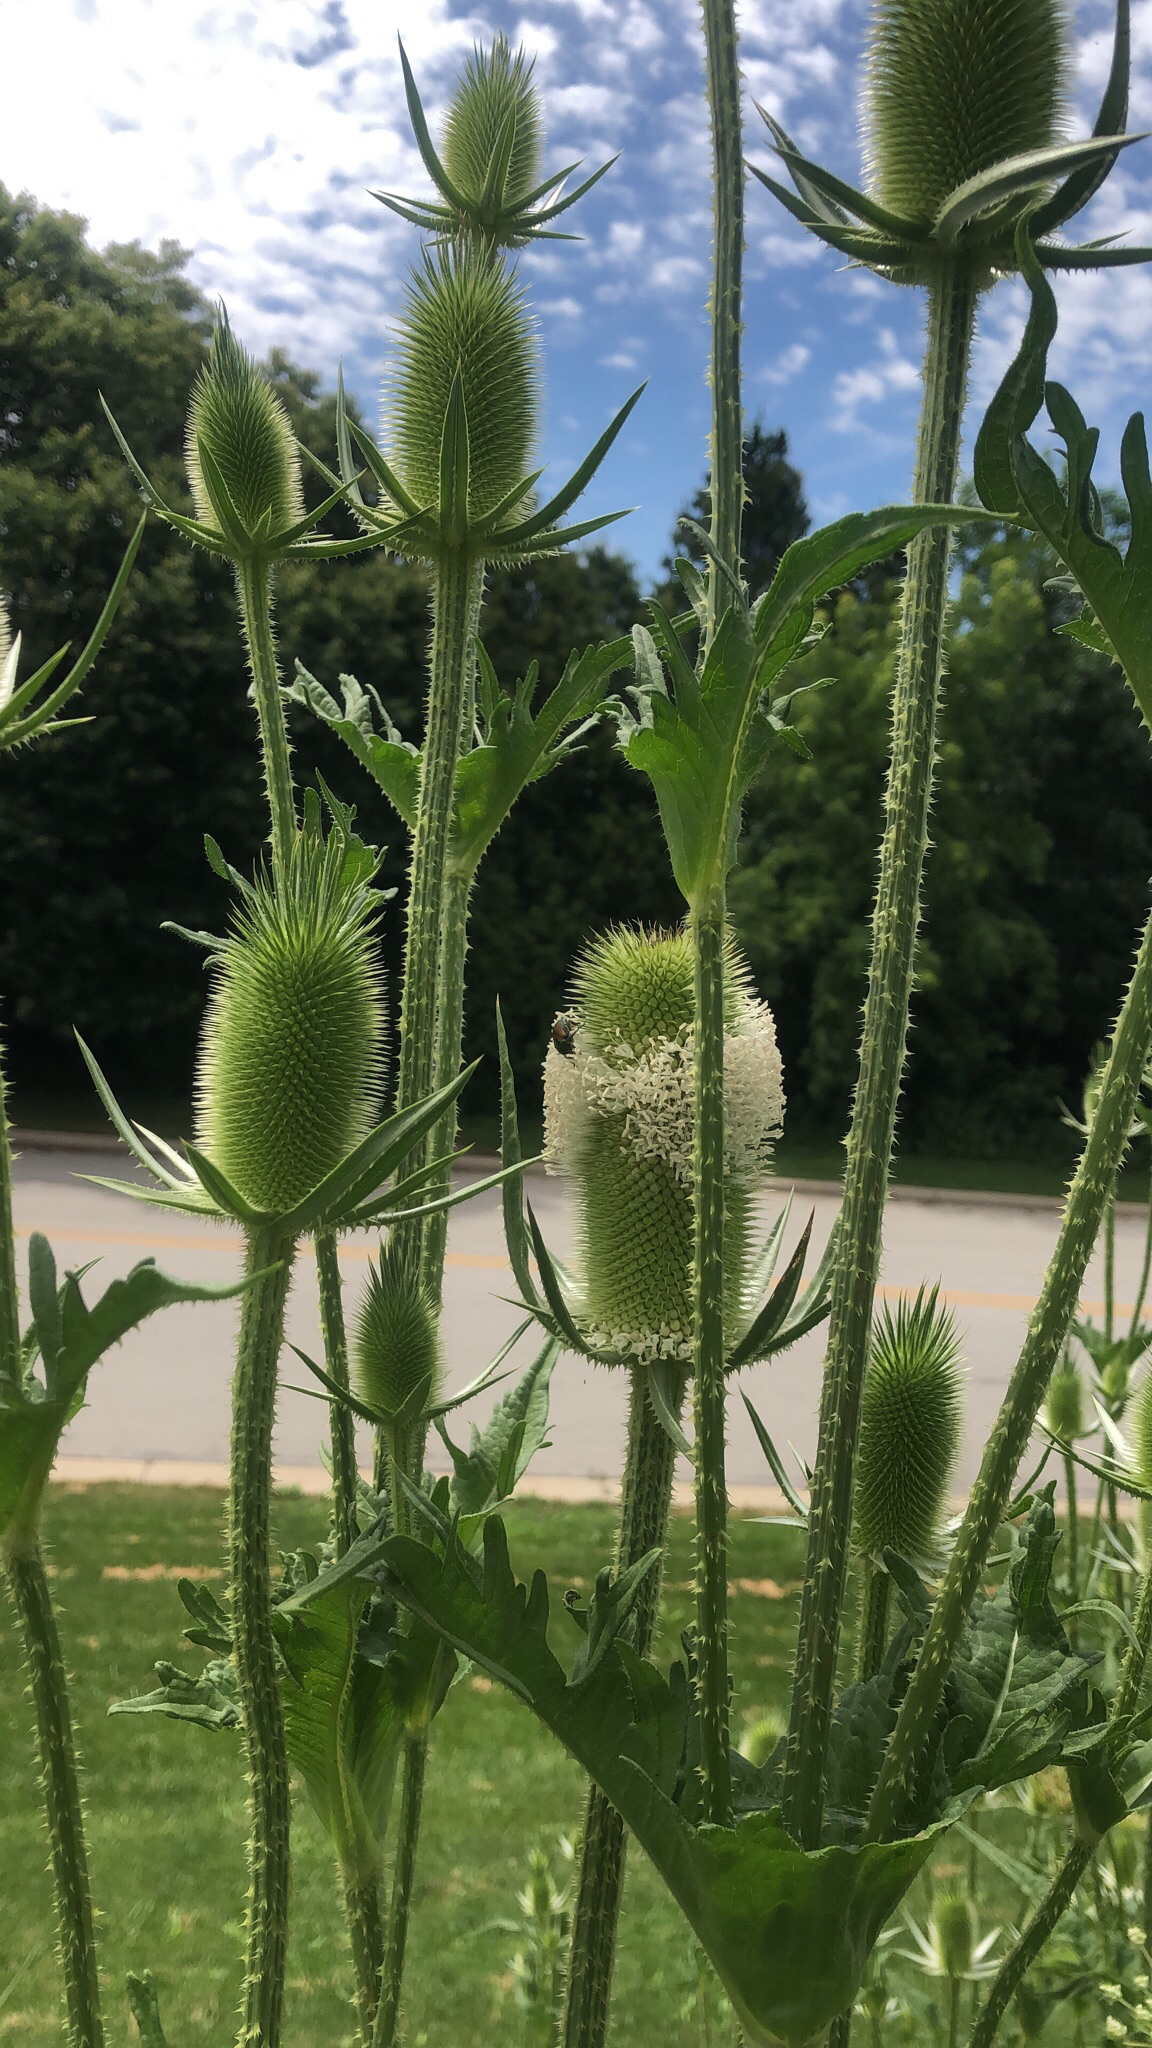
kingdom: Plantae
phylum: Tracheophyta
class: Magnoliopsida
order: Dipsacales
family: Caprifoliaceae
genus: Dipsacus
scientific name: Dipsacus laciniatus
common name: Cut-leaved teasel
